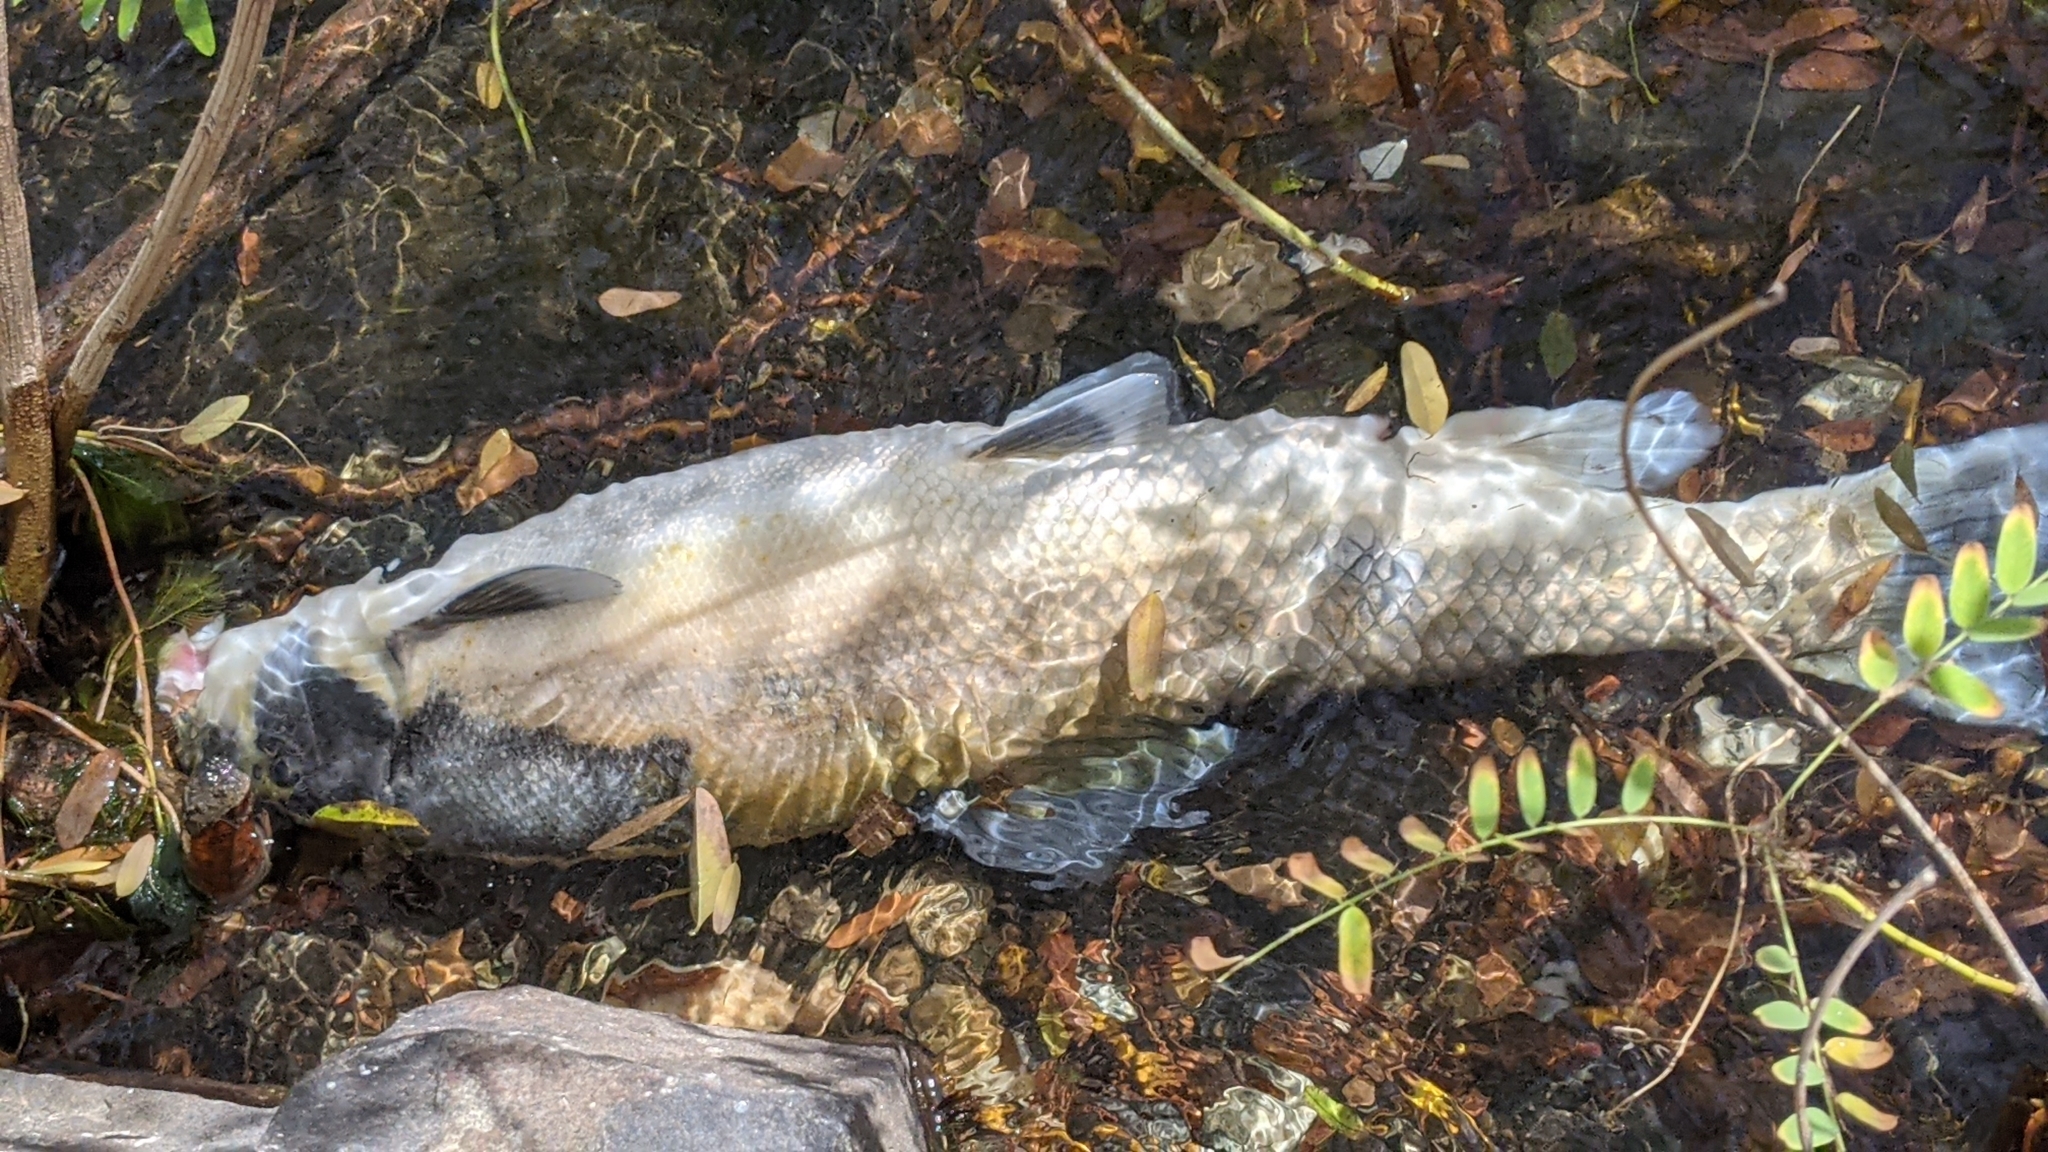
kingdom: Animalia
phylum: Chordata
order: Cypriniformes
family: Catostomidae
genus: Catostomus
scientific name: Catostomus macrocheilus
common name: Largescale sucker
